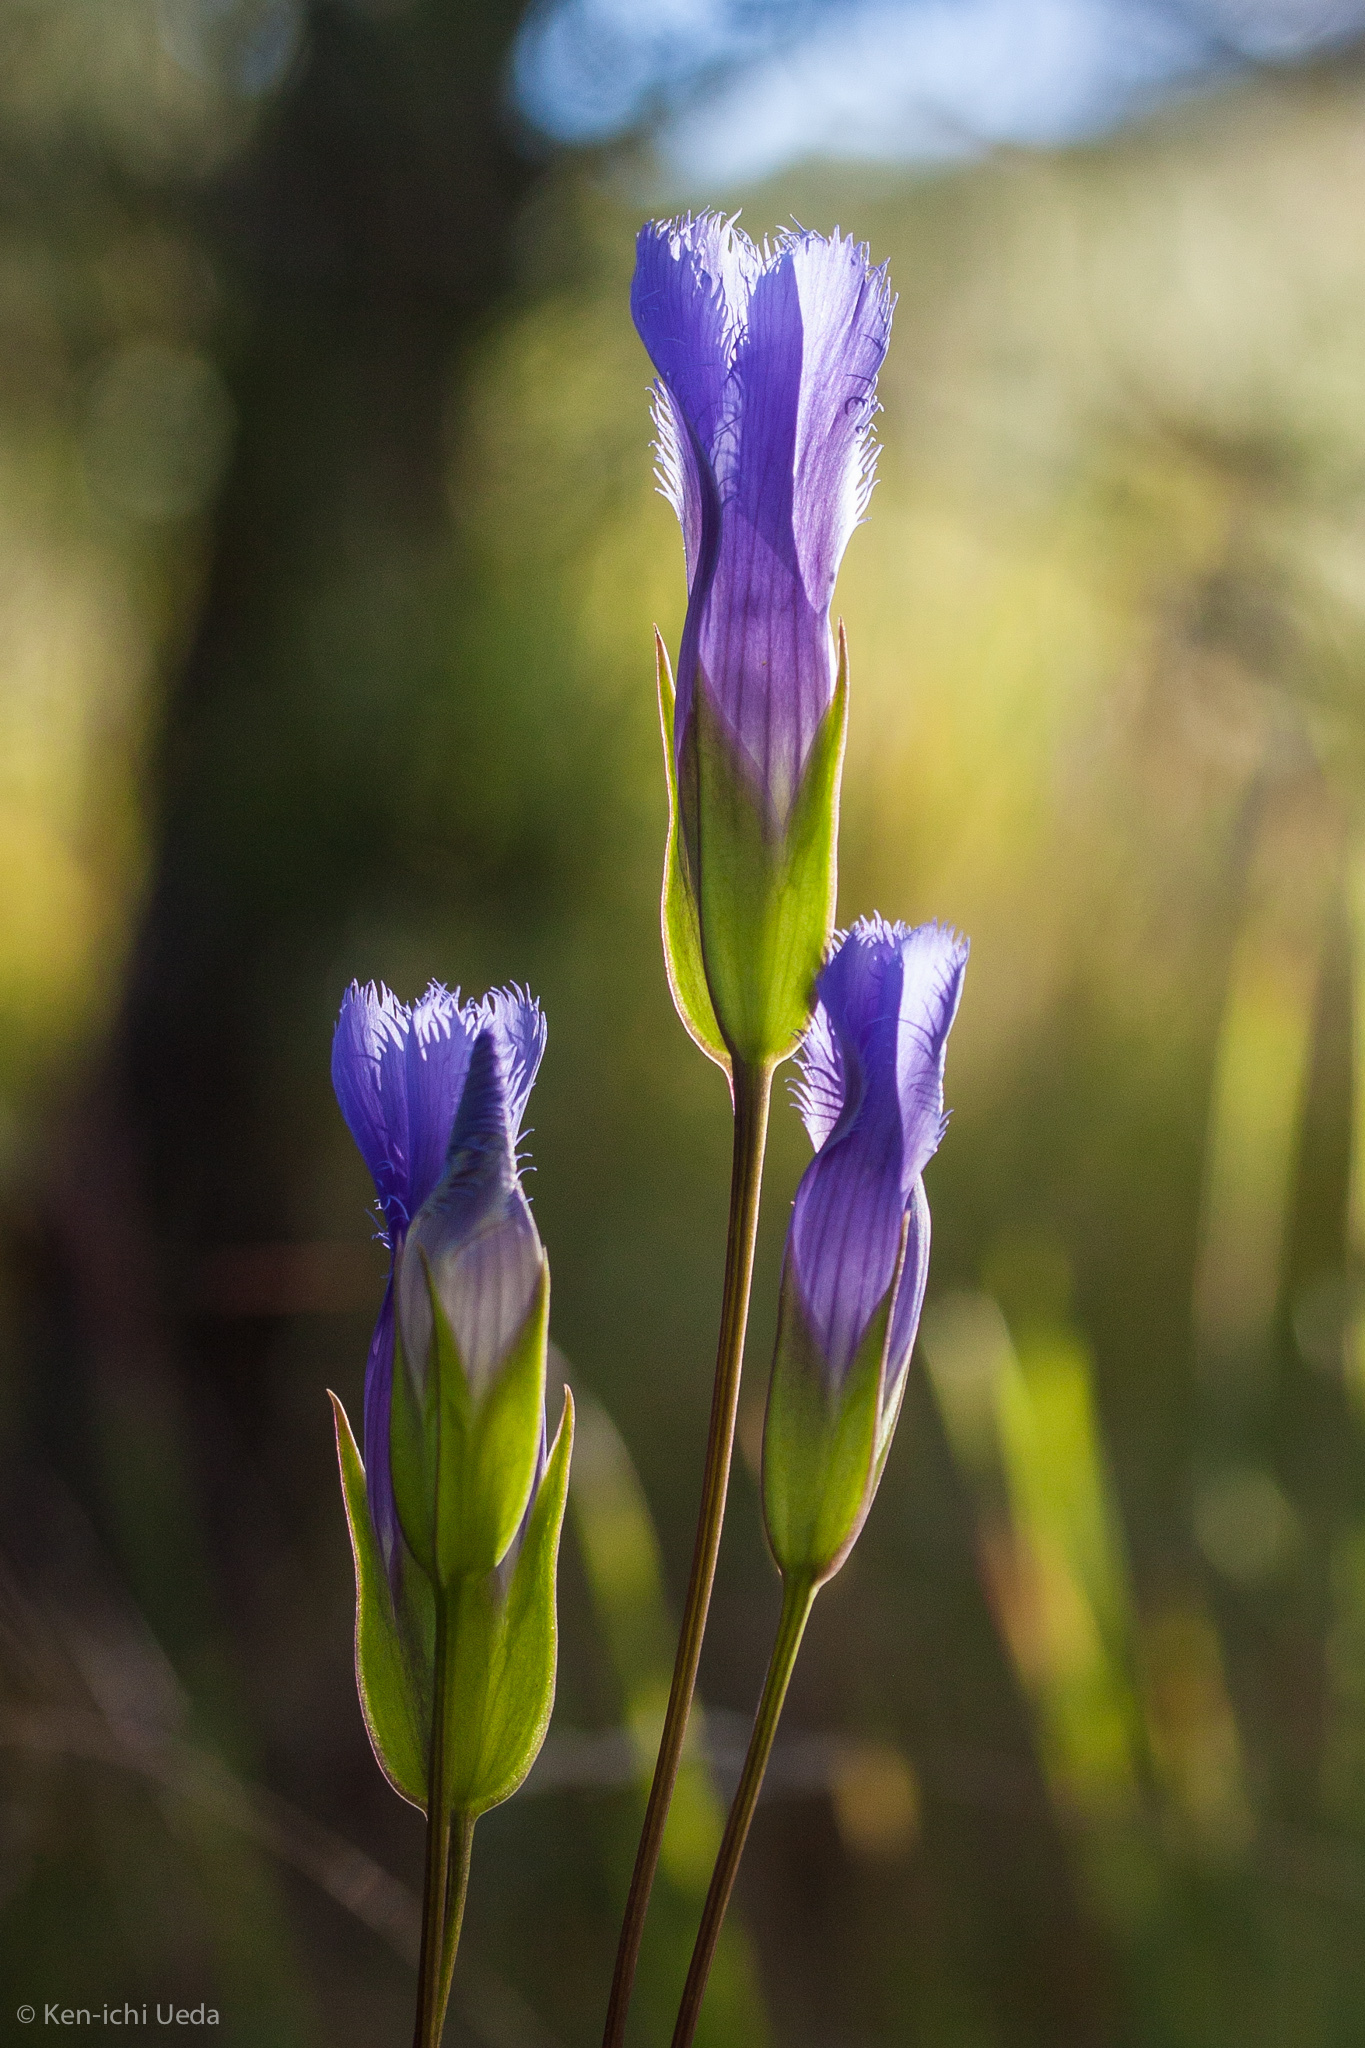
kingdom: Plantae
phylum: Tracheophyta
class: Magnoliopsida
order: Gentianales
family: Gentianaceae
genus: Gentianopsis
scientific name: Gentianopsis crinita
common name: Fringed-gentian
